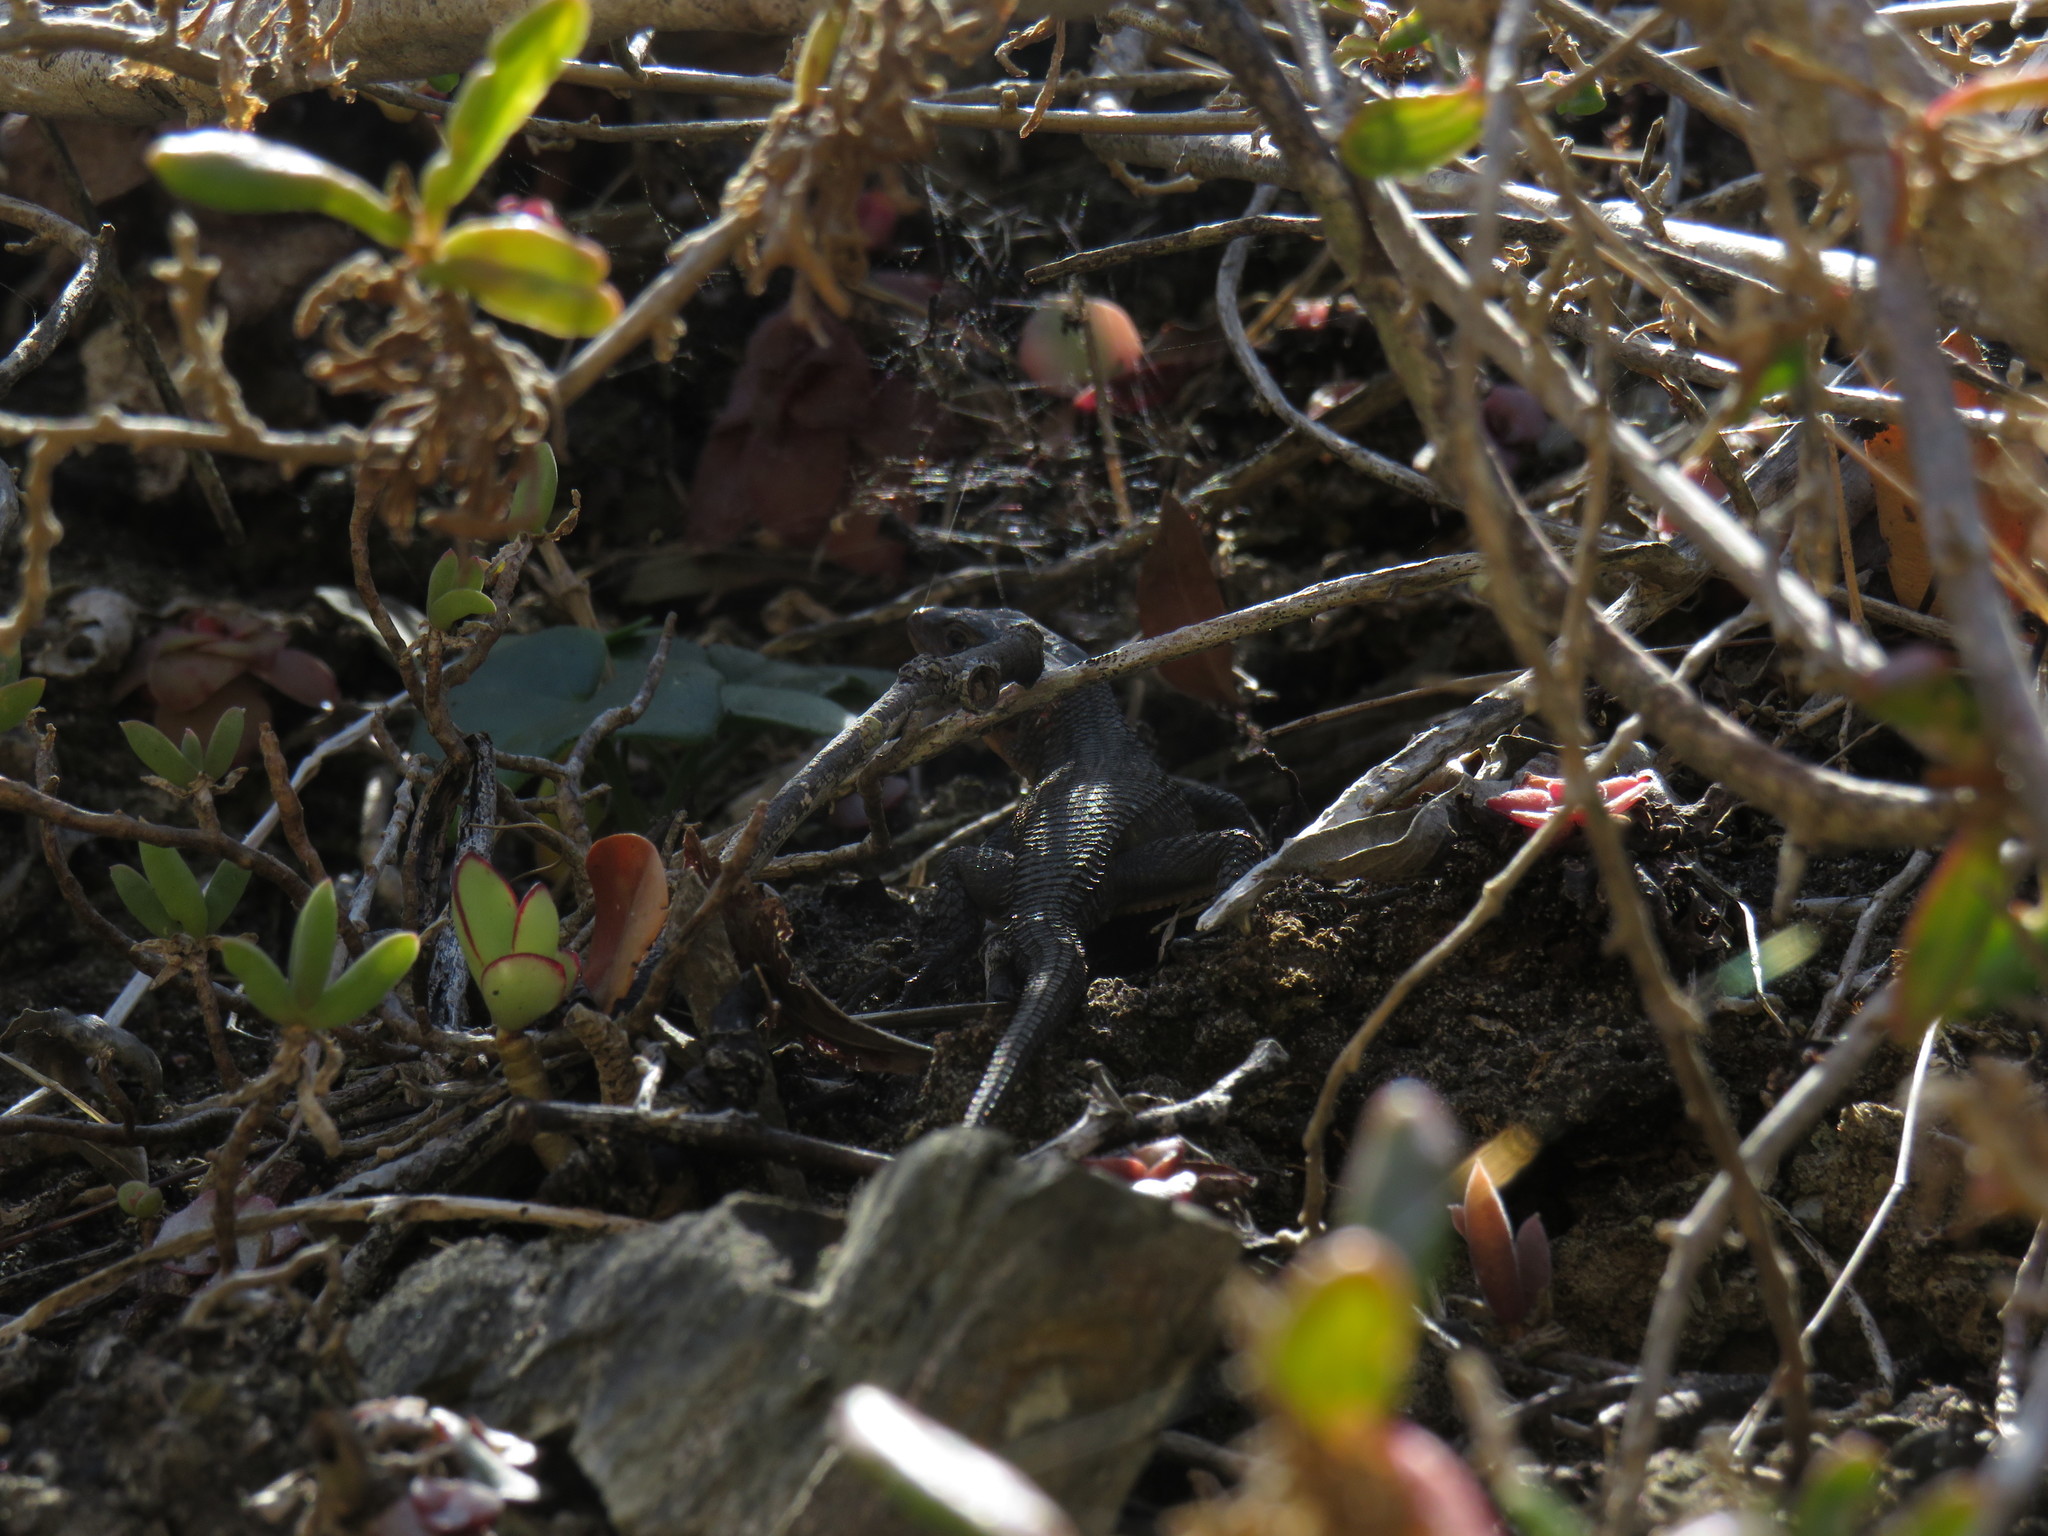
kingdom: Animalia
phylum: Chordata
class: Squamata
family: Cordylidae
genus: Ninurta
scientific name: Ninurta coeruleopunctatus
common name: Blue-spotted girdled lizard
